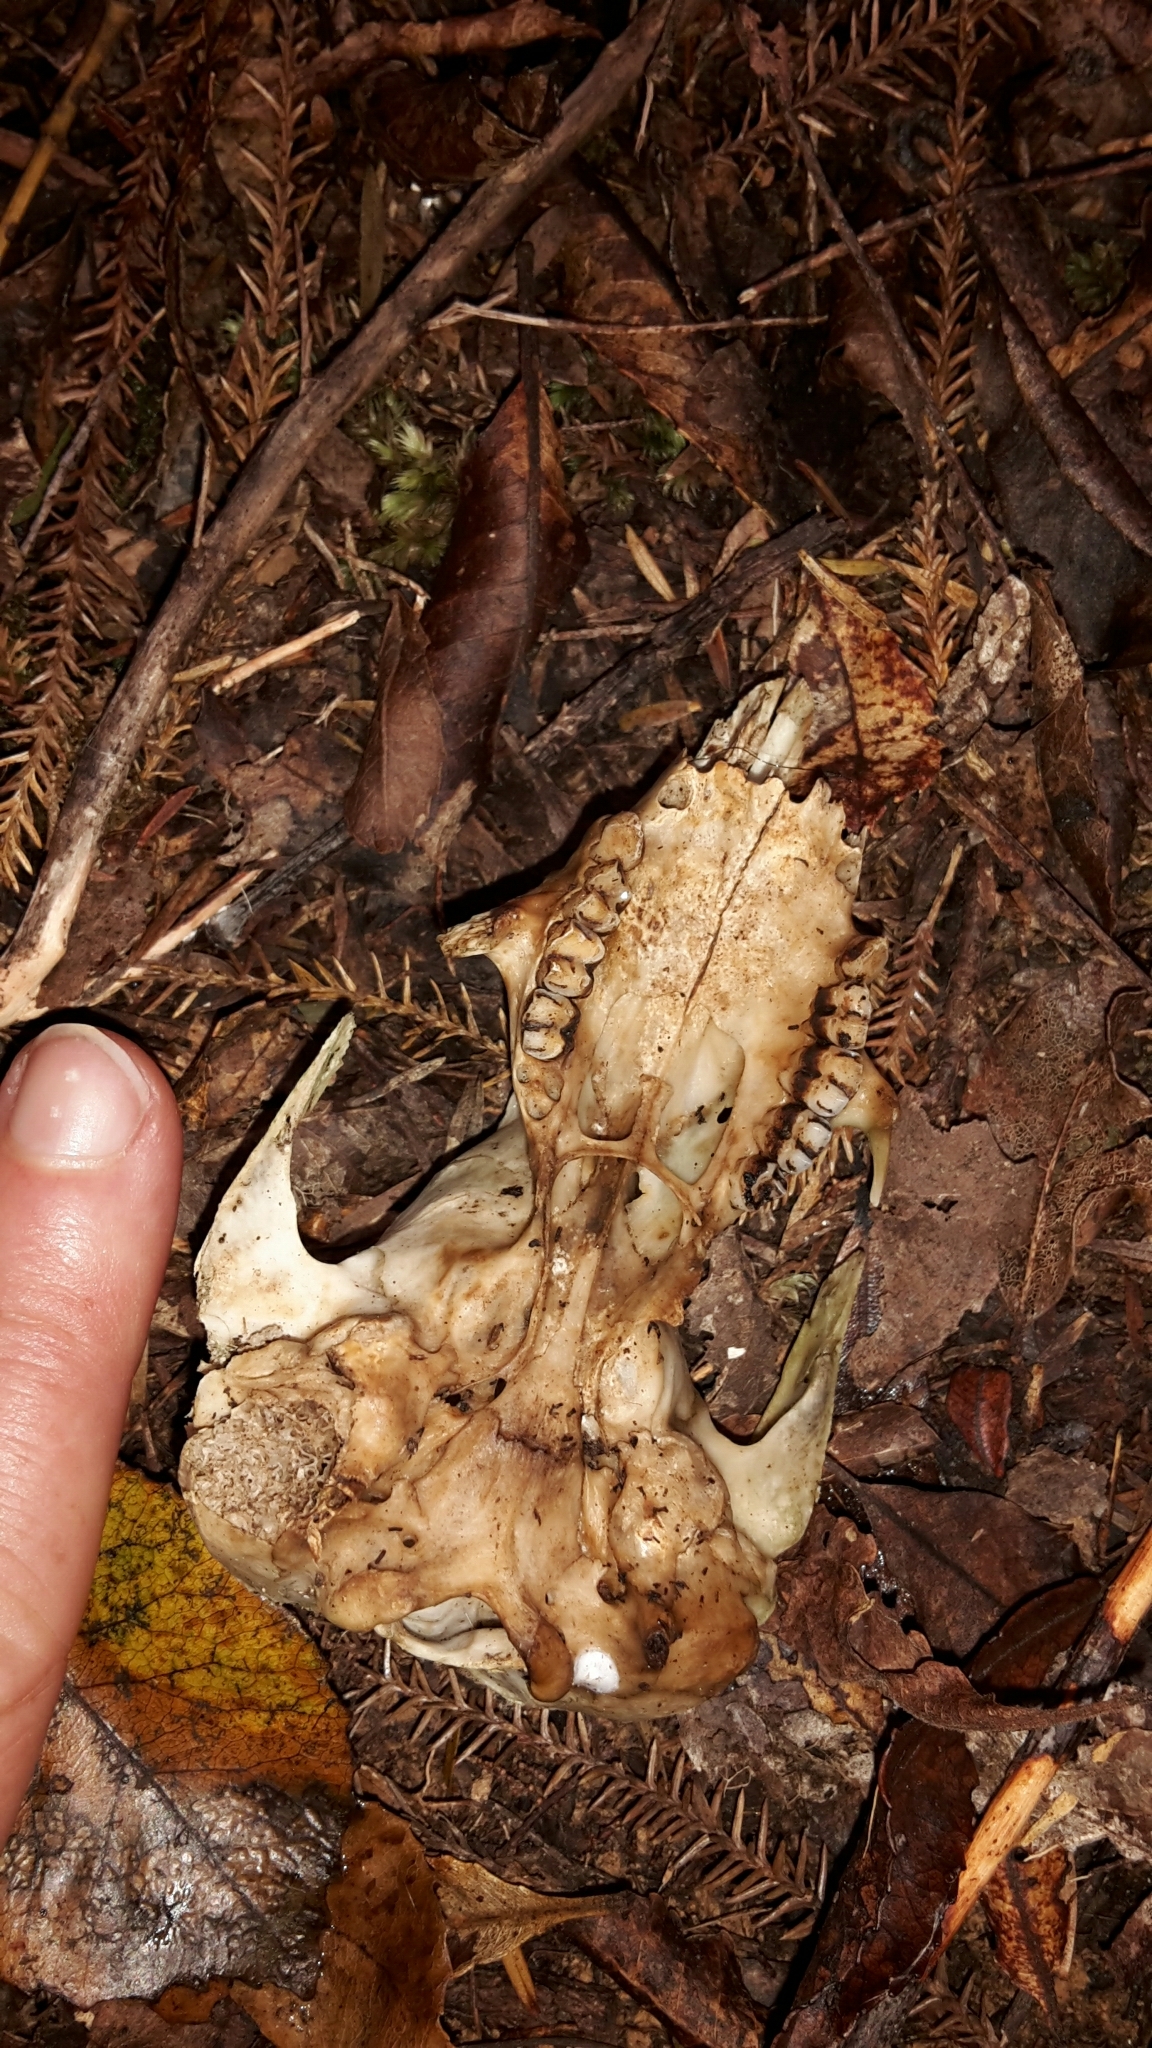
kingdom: Animalia
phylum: Chordata
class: Mammalia
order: Diprotodontia
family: Phalangeridae
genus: Trichosurus
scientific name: Trichosurus vulpecula
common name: Common brushtail
